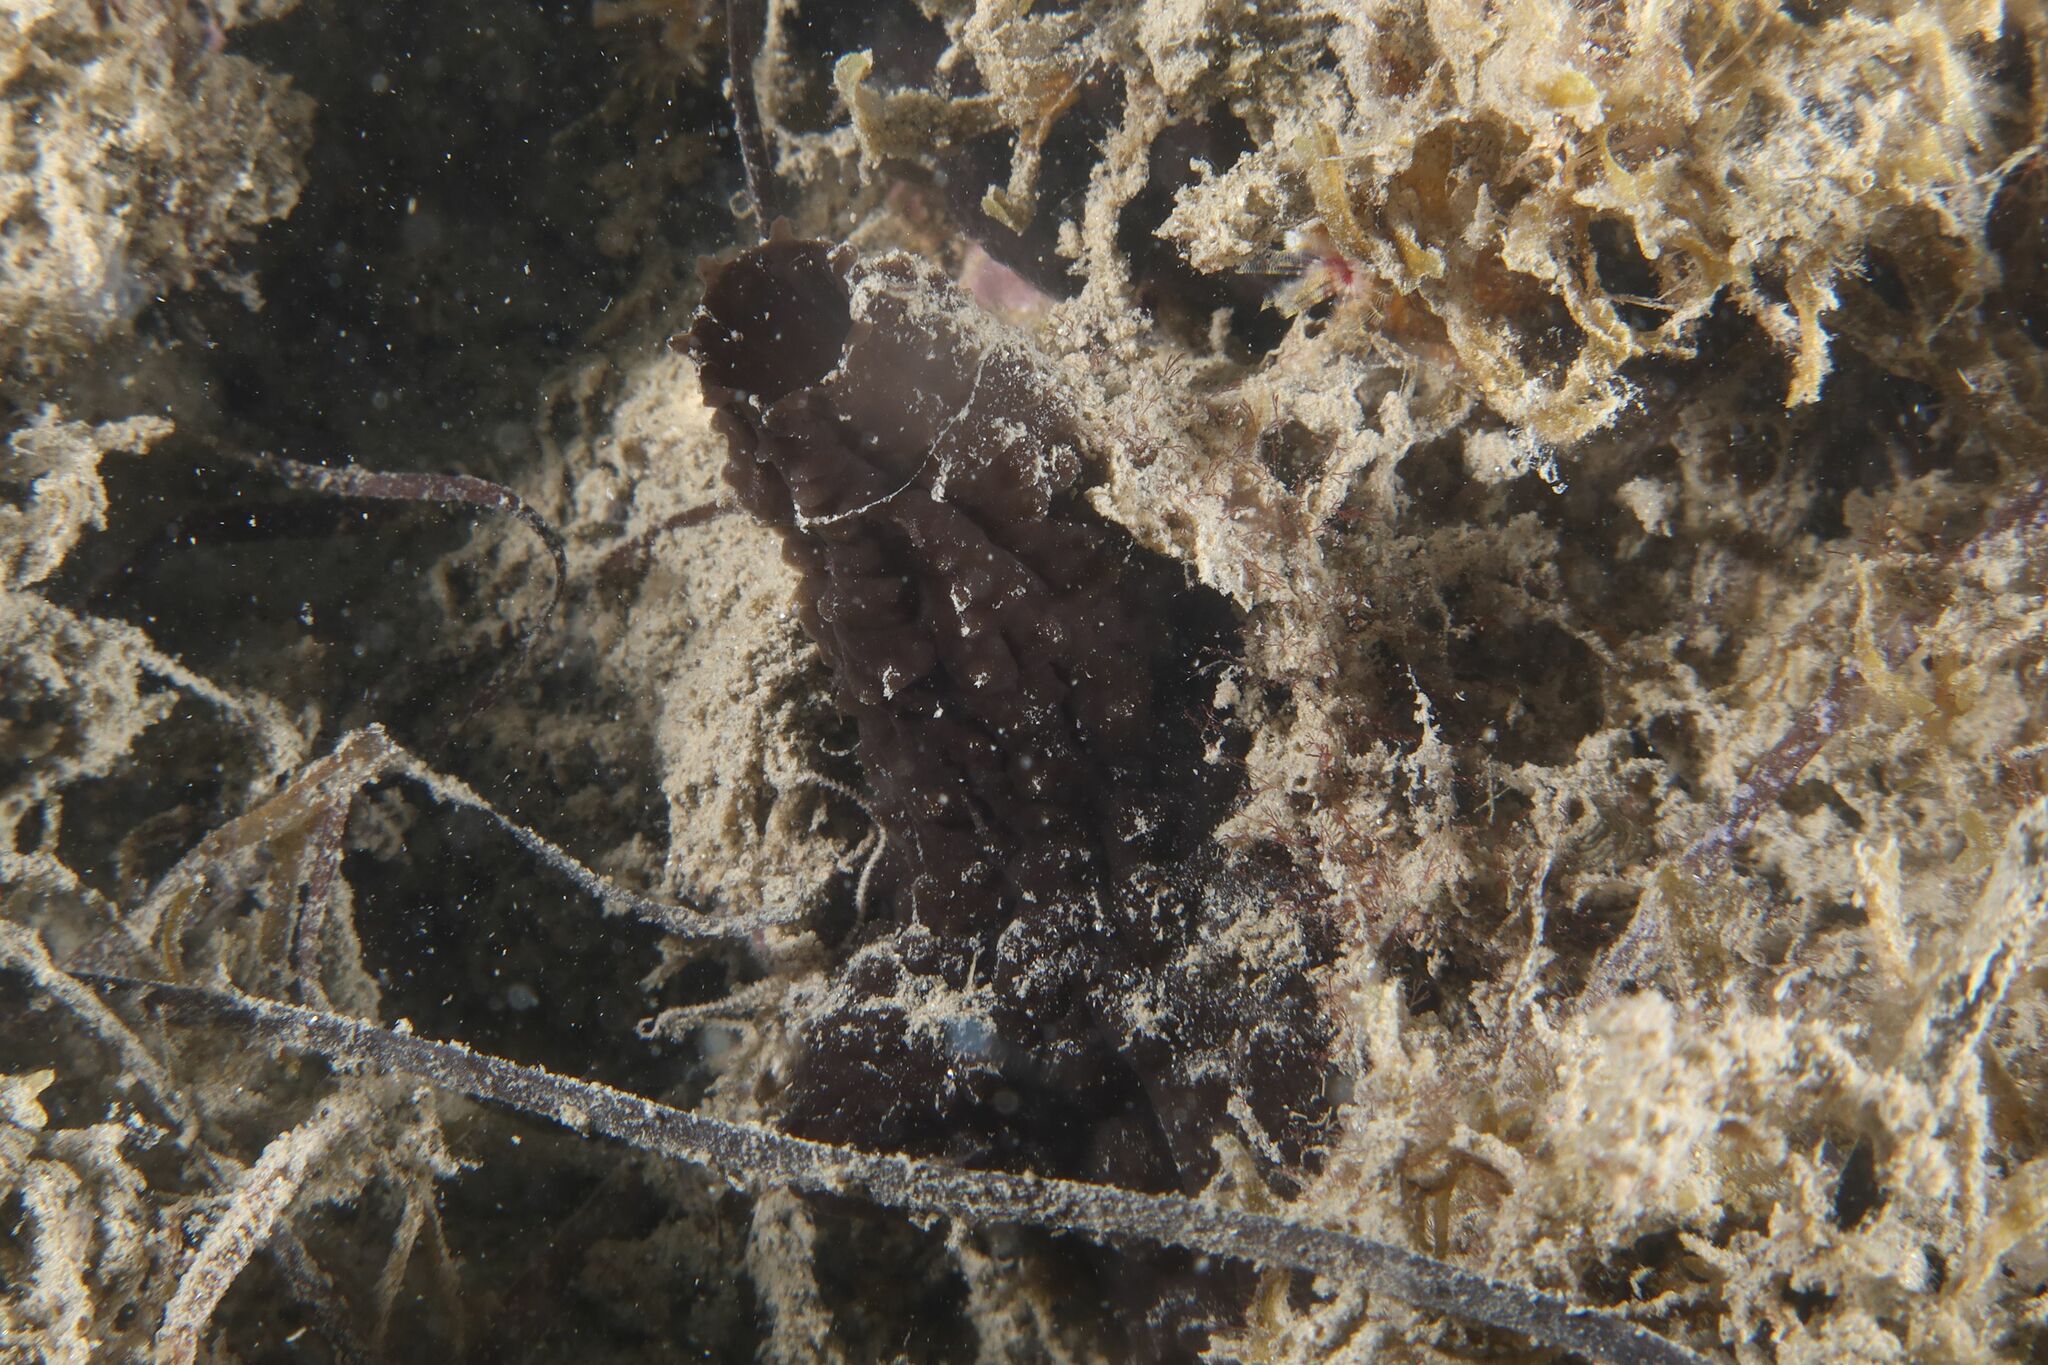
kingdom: Animalia
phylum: Chordata
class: Ascidiacea
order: Phlebobranchia
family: Ascidiidae
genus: Phallusia
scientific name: Phallusia fumigata
